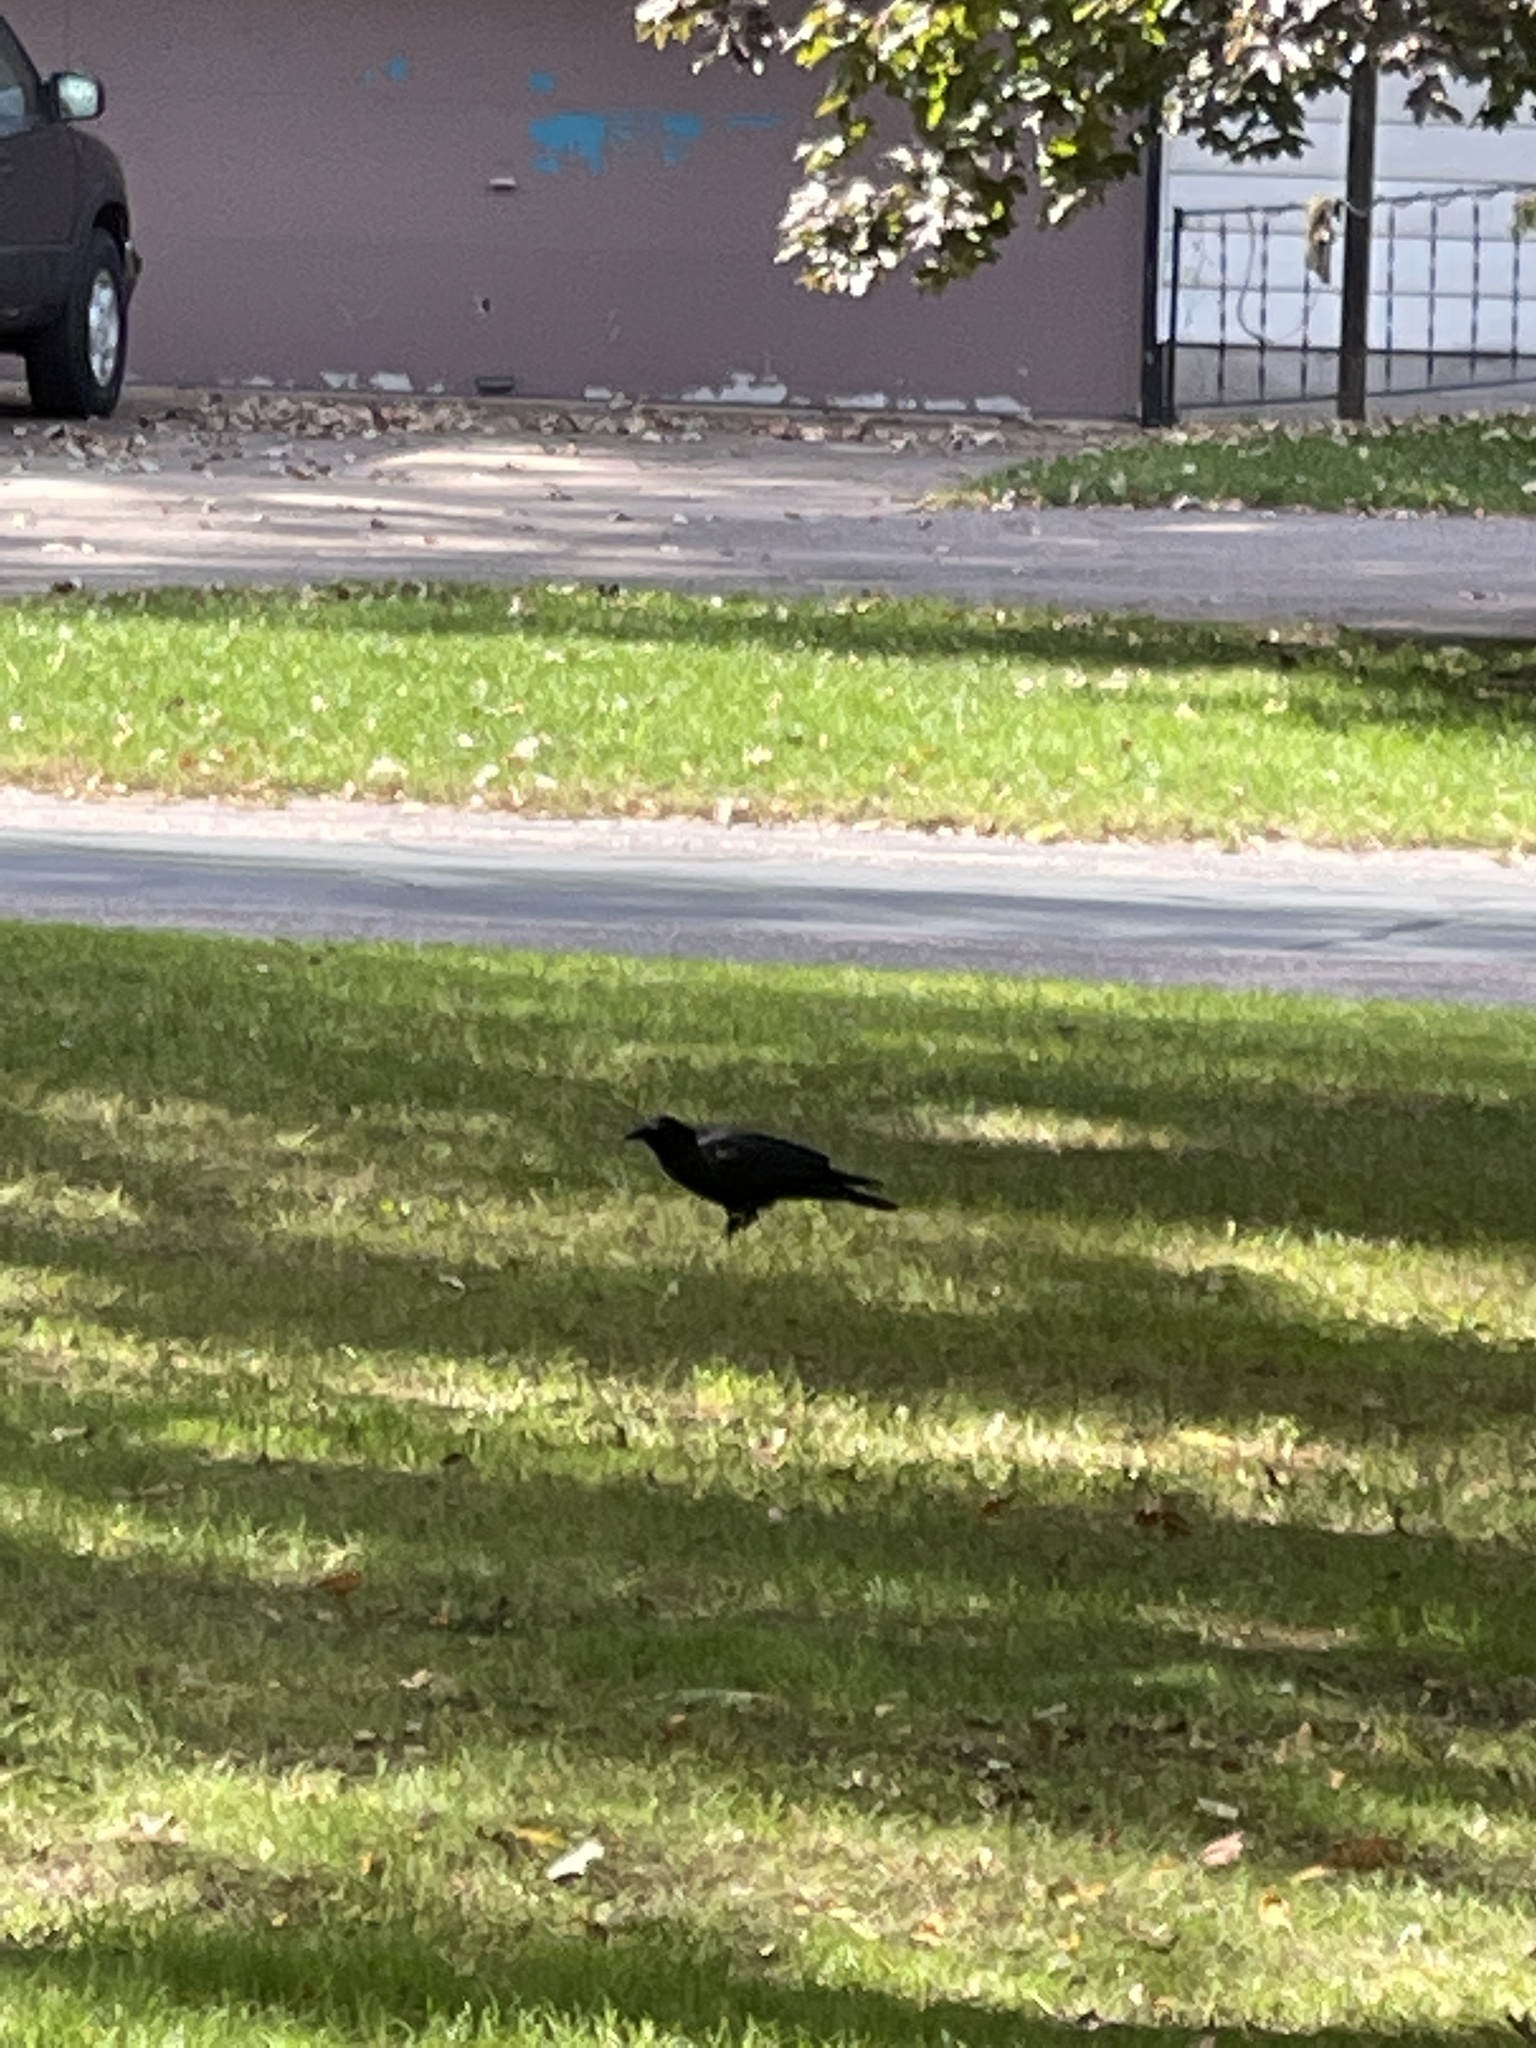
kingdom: Animalia
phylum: Chordata
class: Aves
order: Passeriformes
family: Corvidae
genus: Corvus
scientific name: Corvus brachyrhynchos
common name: American crow
